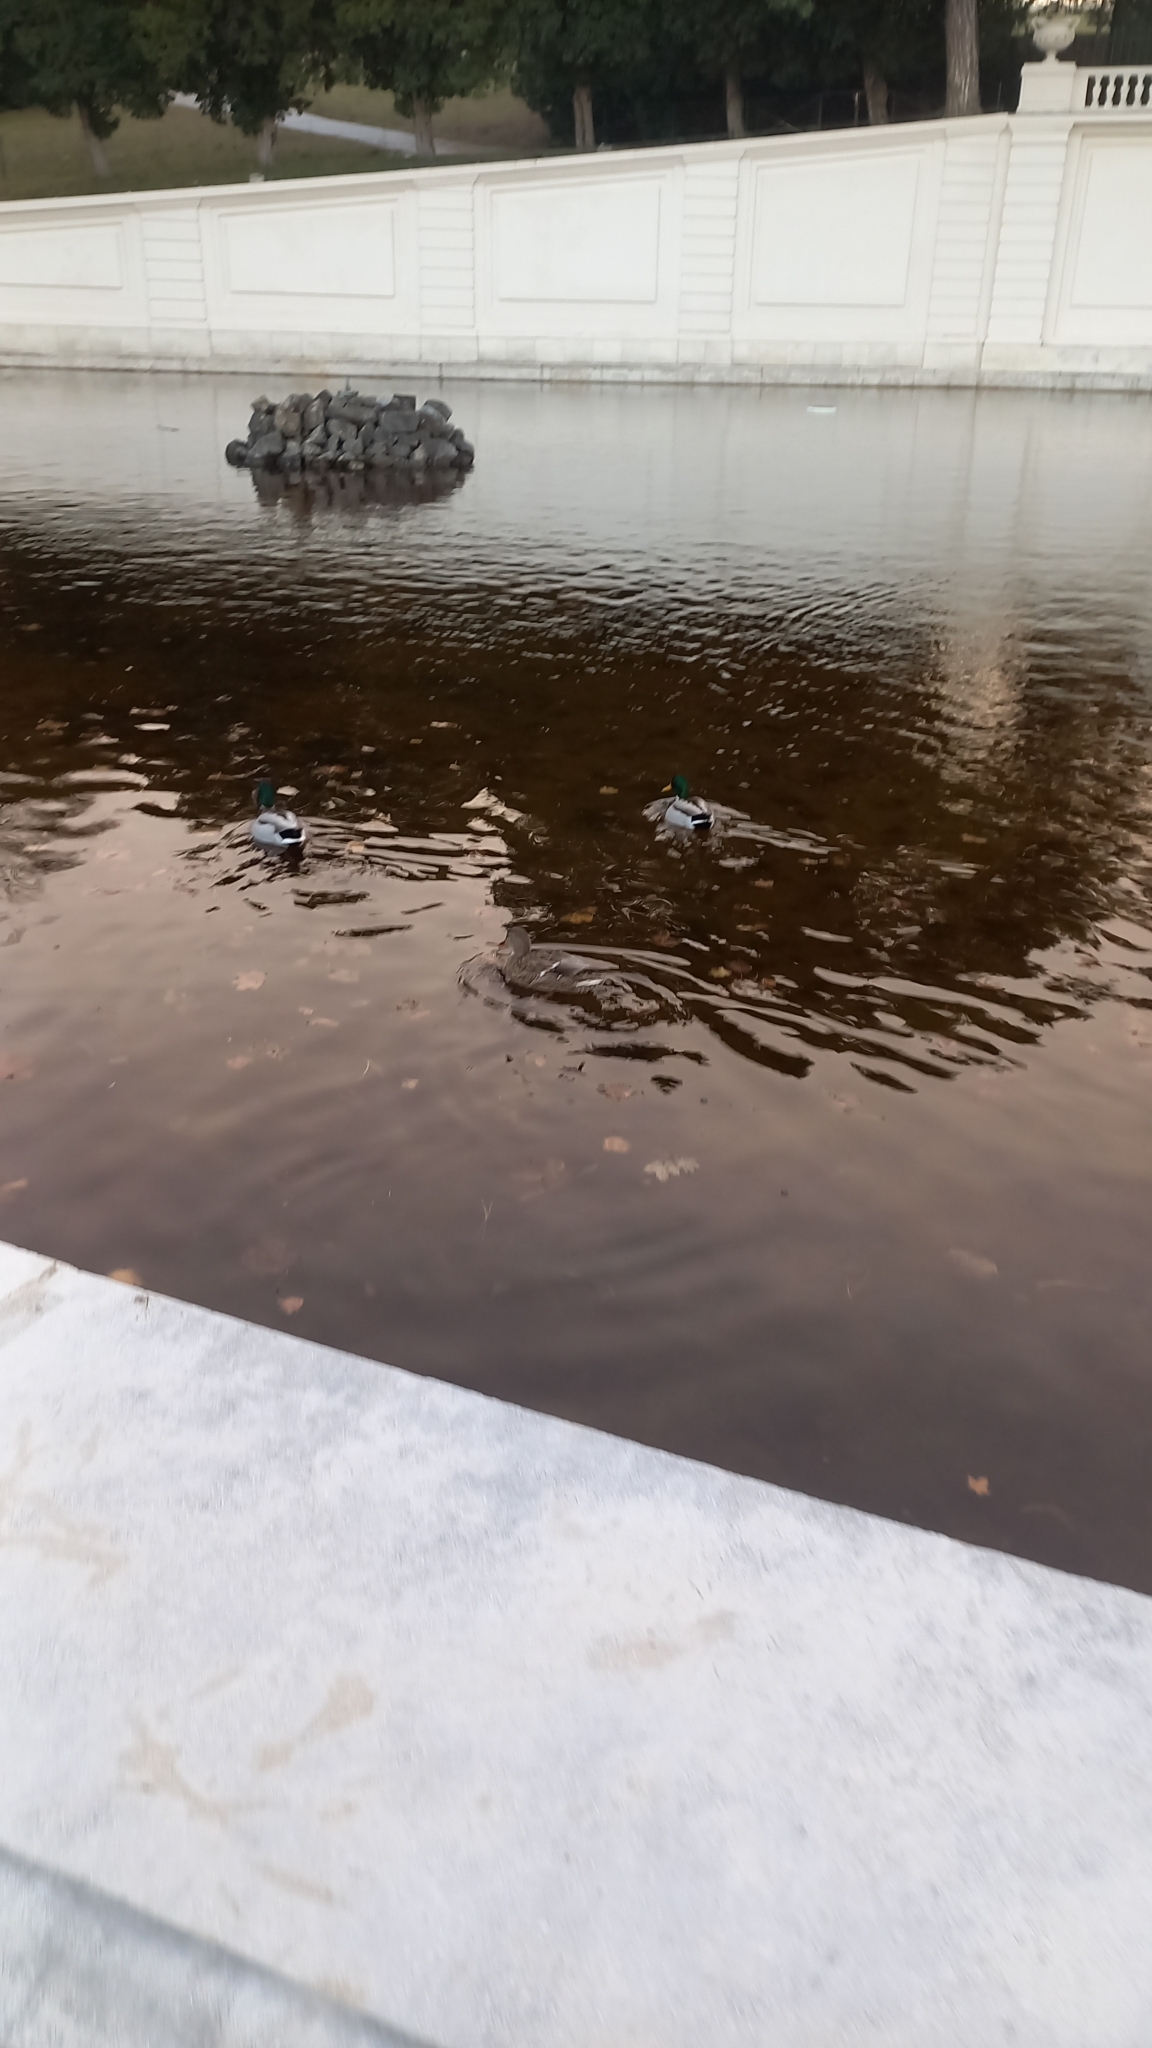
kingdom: Animalia
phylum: Chordata
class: Aves
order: Anseriformes
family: Anatidae
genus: Anas
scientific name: Anas platyrhynchos
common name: Mallard
